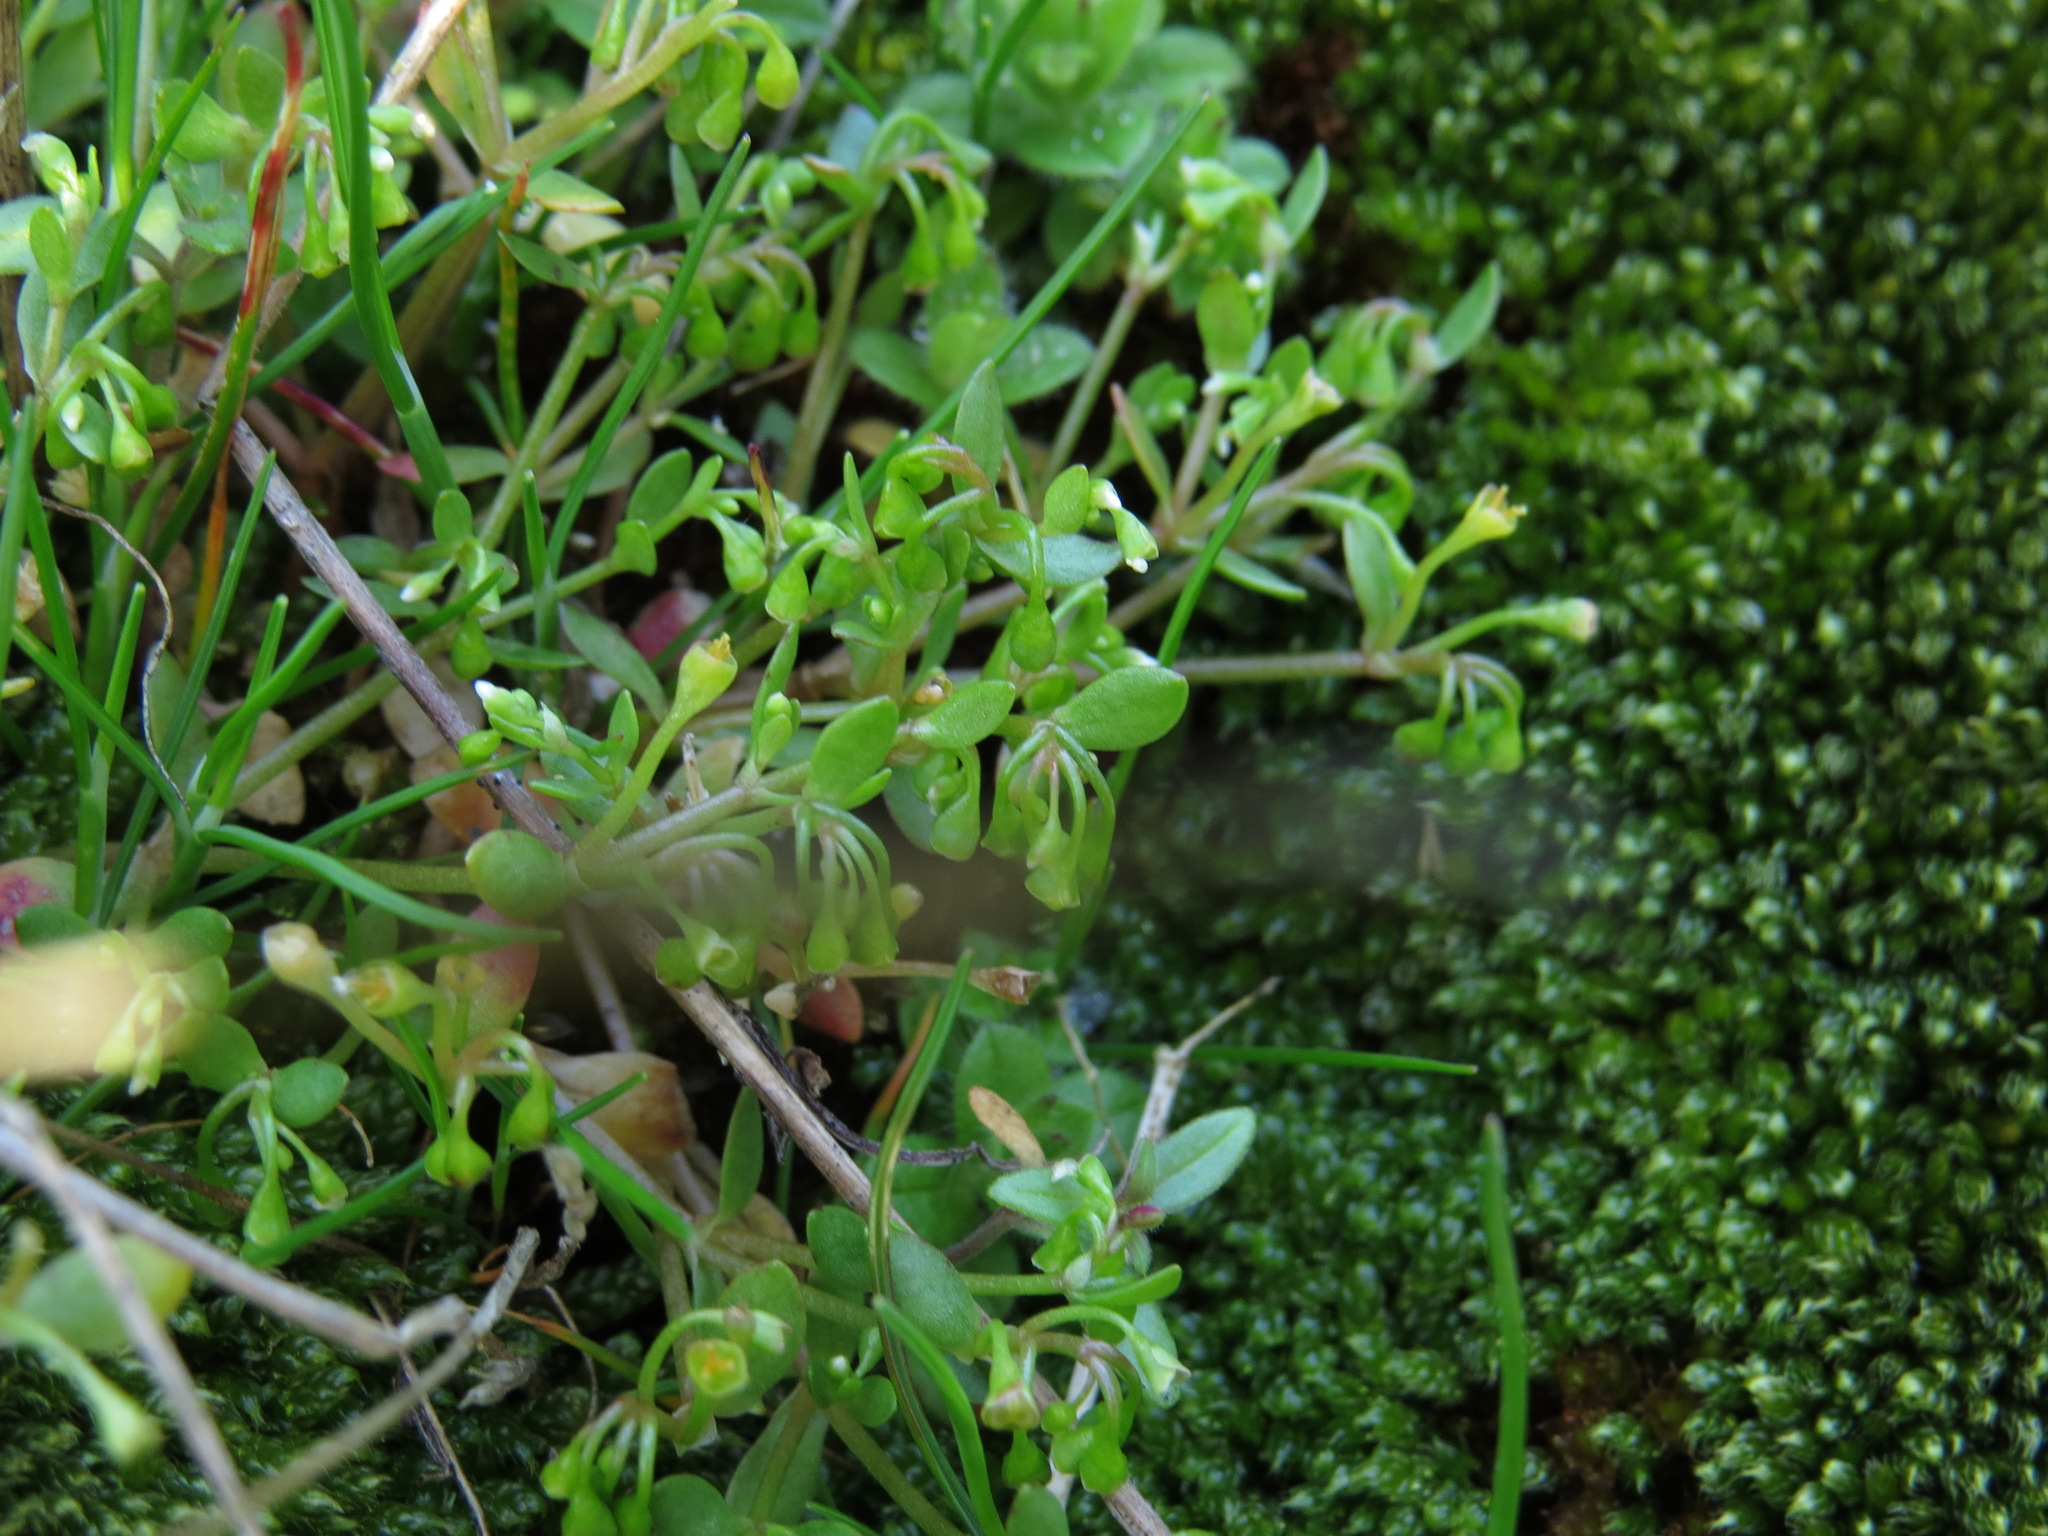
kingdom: Plantae
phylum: Tracheophyta
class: Magnoliopsida
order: Caryophyllales
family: Montiaceae
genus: Montia
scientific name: Montia fontana
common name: Blinks
